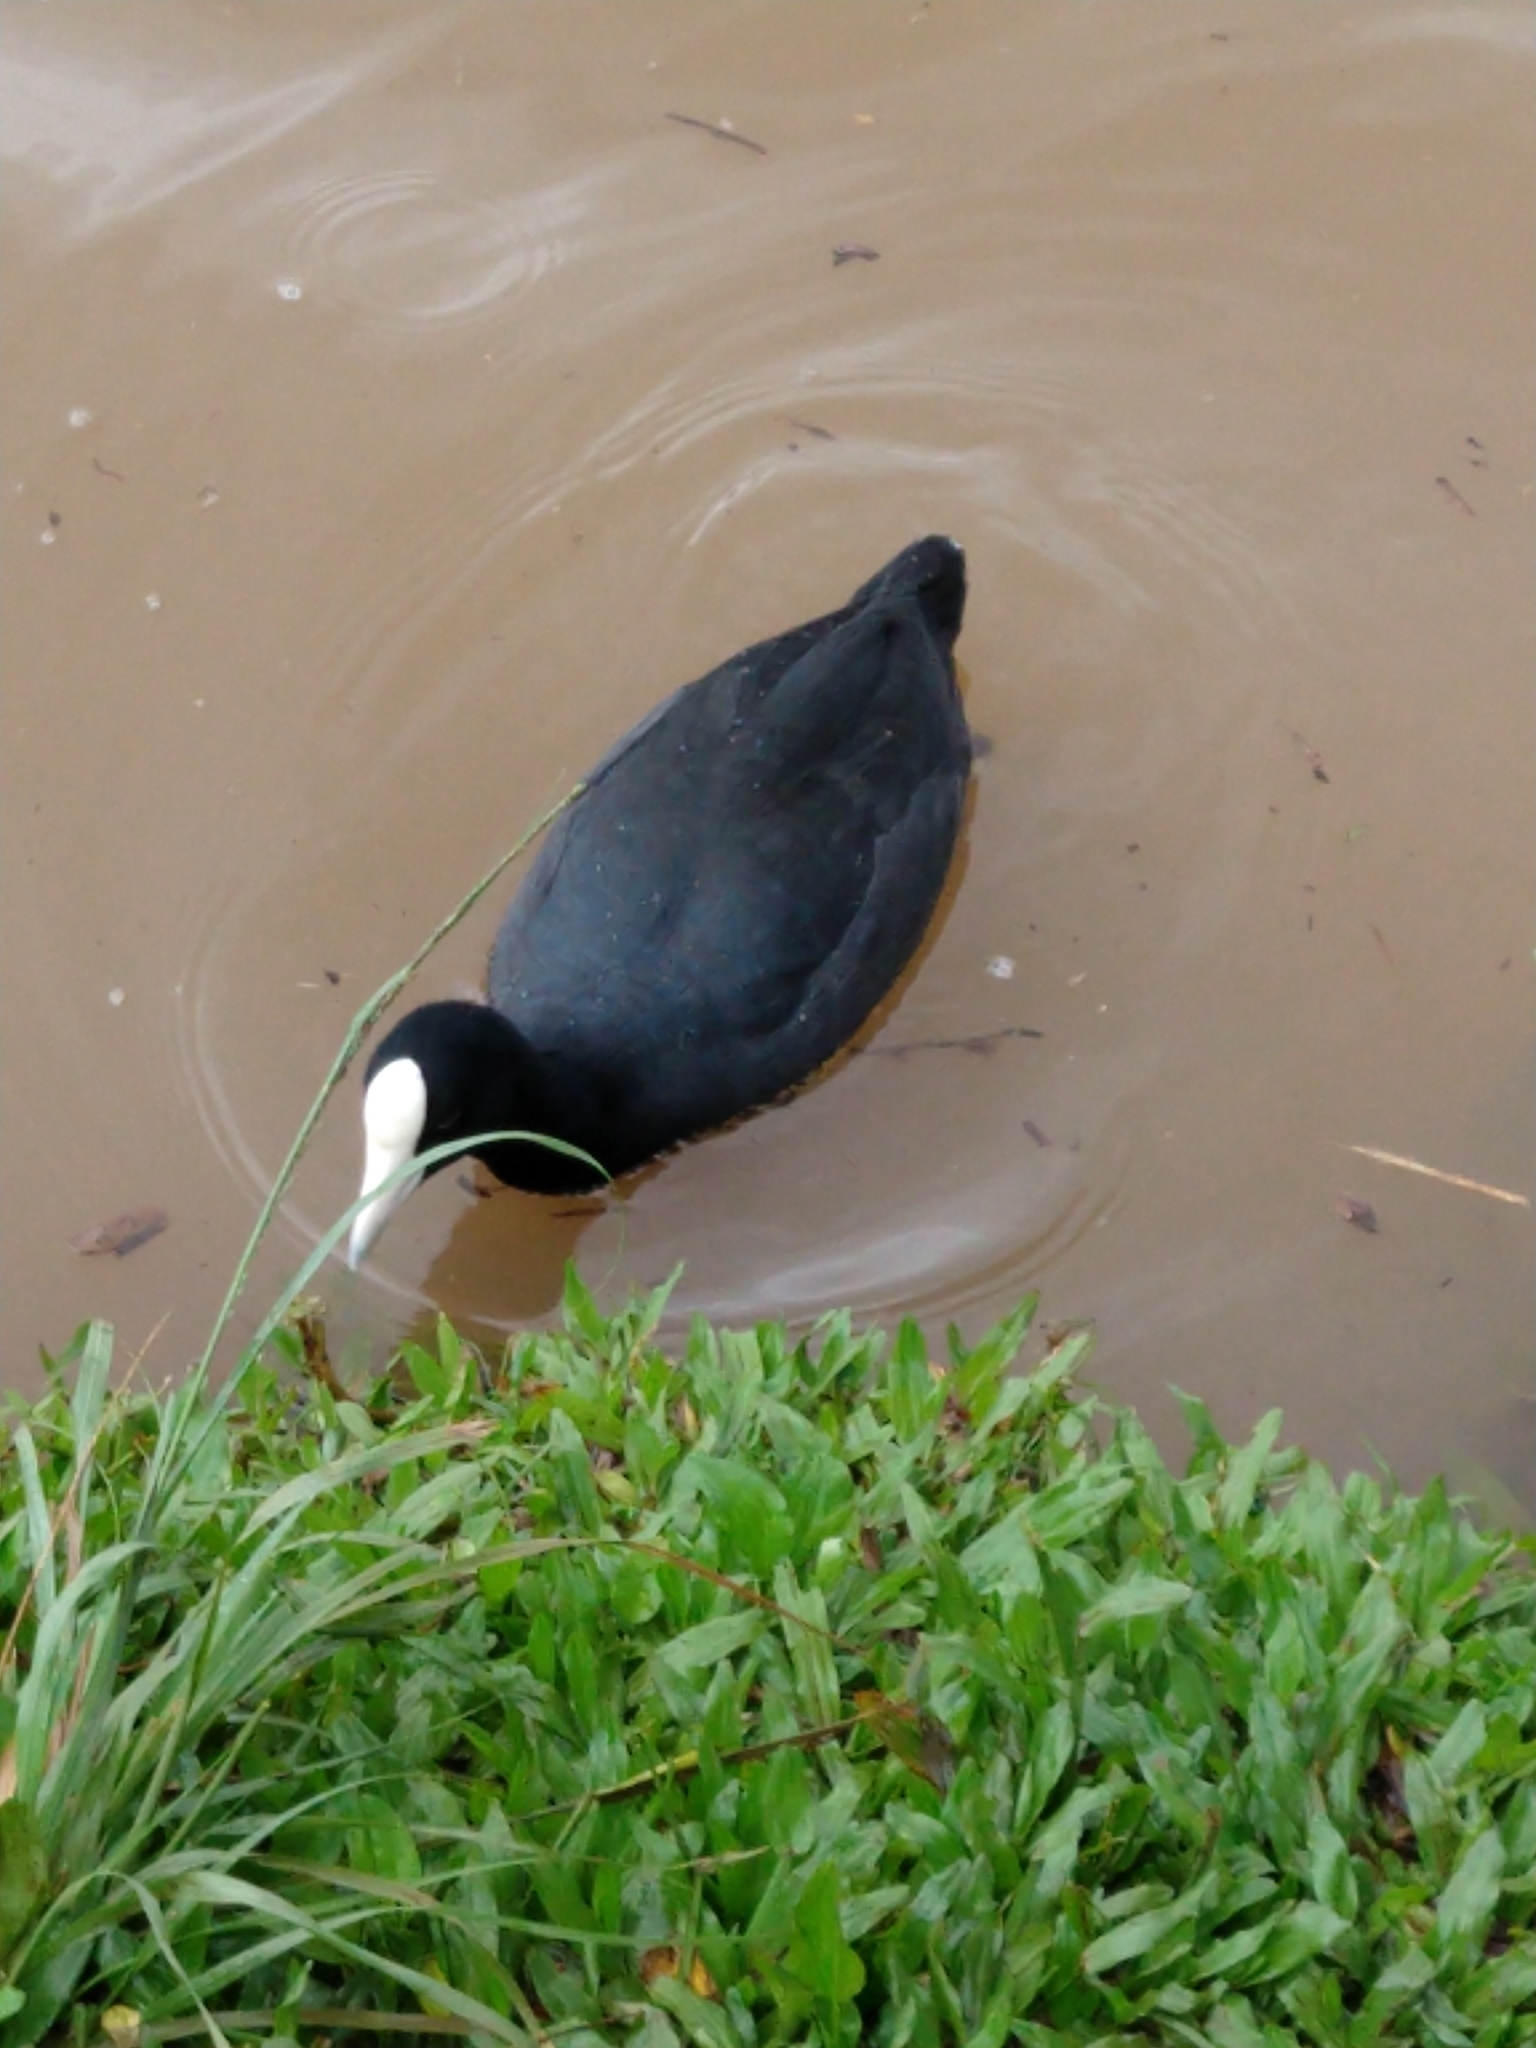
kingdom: Animalia
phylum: Chordata
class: Aves
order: Gruiformes
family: Rallidae
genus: Fulica
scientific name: Fulica alai
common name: Hawaiian coot
